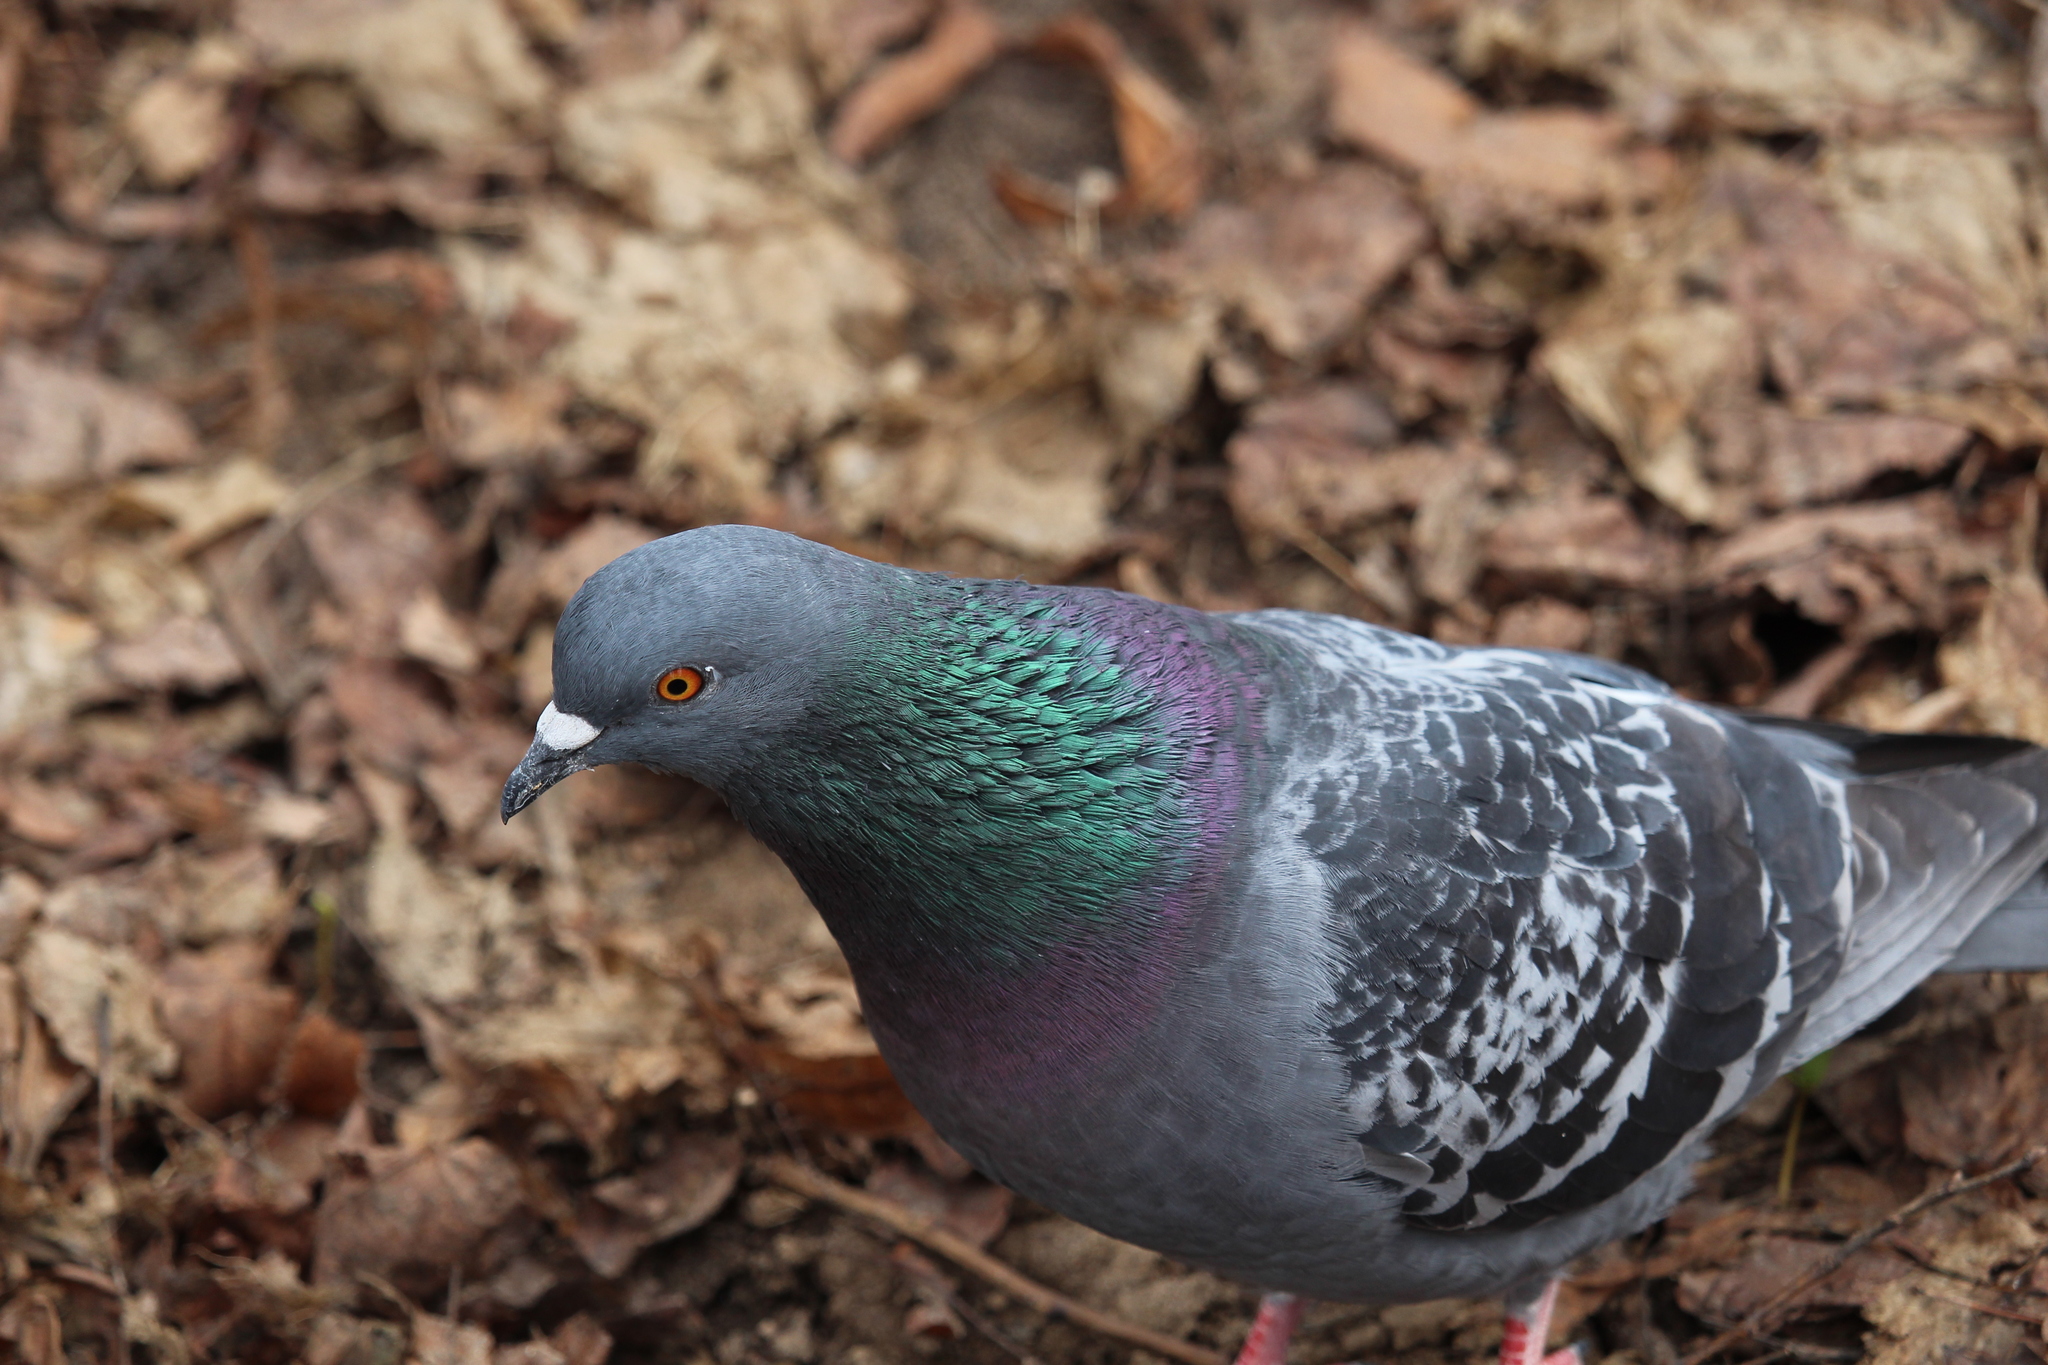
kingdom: Animalia
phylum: Chordata
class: Aves
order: Columbiformes
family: Columbidae
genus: Columba
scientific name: Columba livia
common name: Rock pigeon
